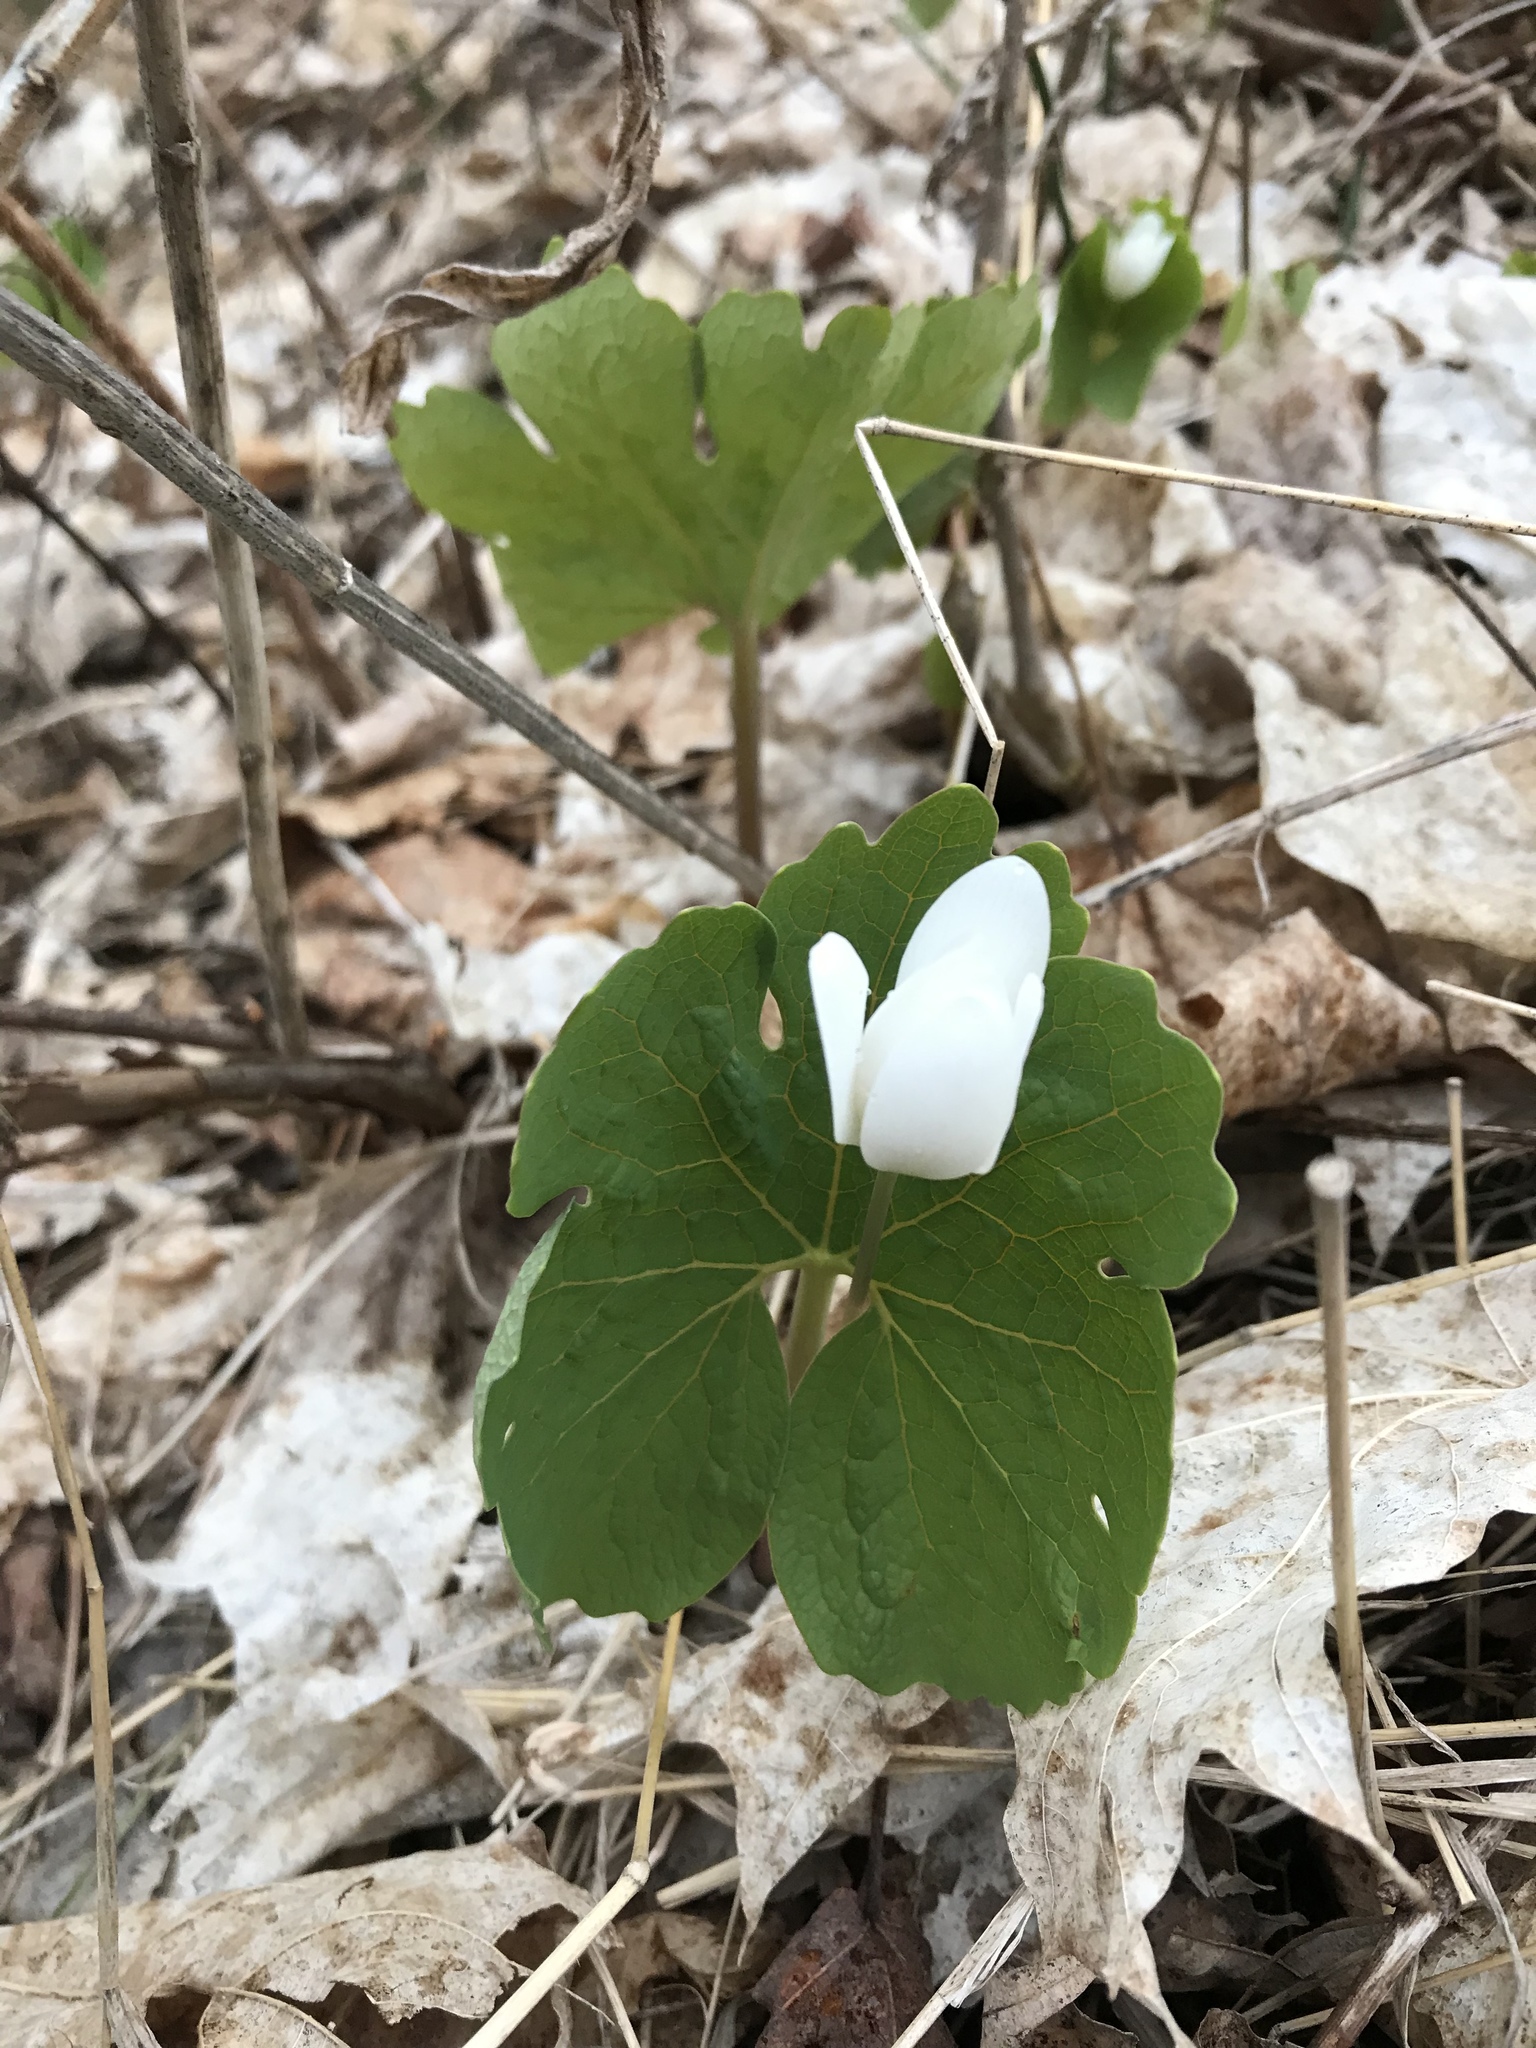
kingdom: Plantae
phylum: Tracheophyta
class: Magnoliopsida
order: Ranunculales
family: Papaveraceae
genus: Sanguinaria
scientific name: Sanguinaria canadensis
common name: Bloodroot
